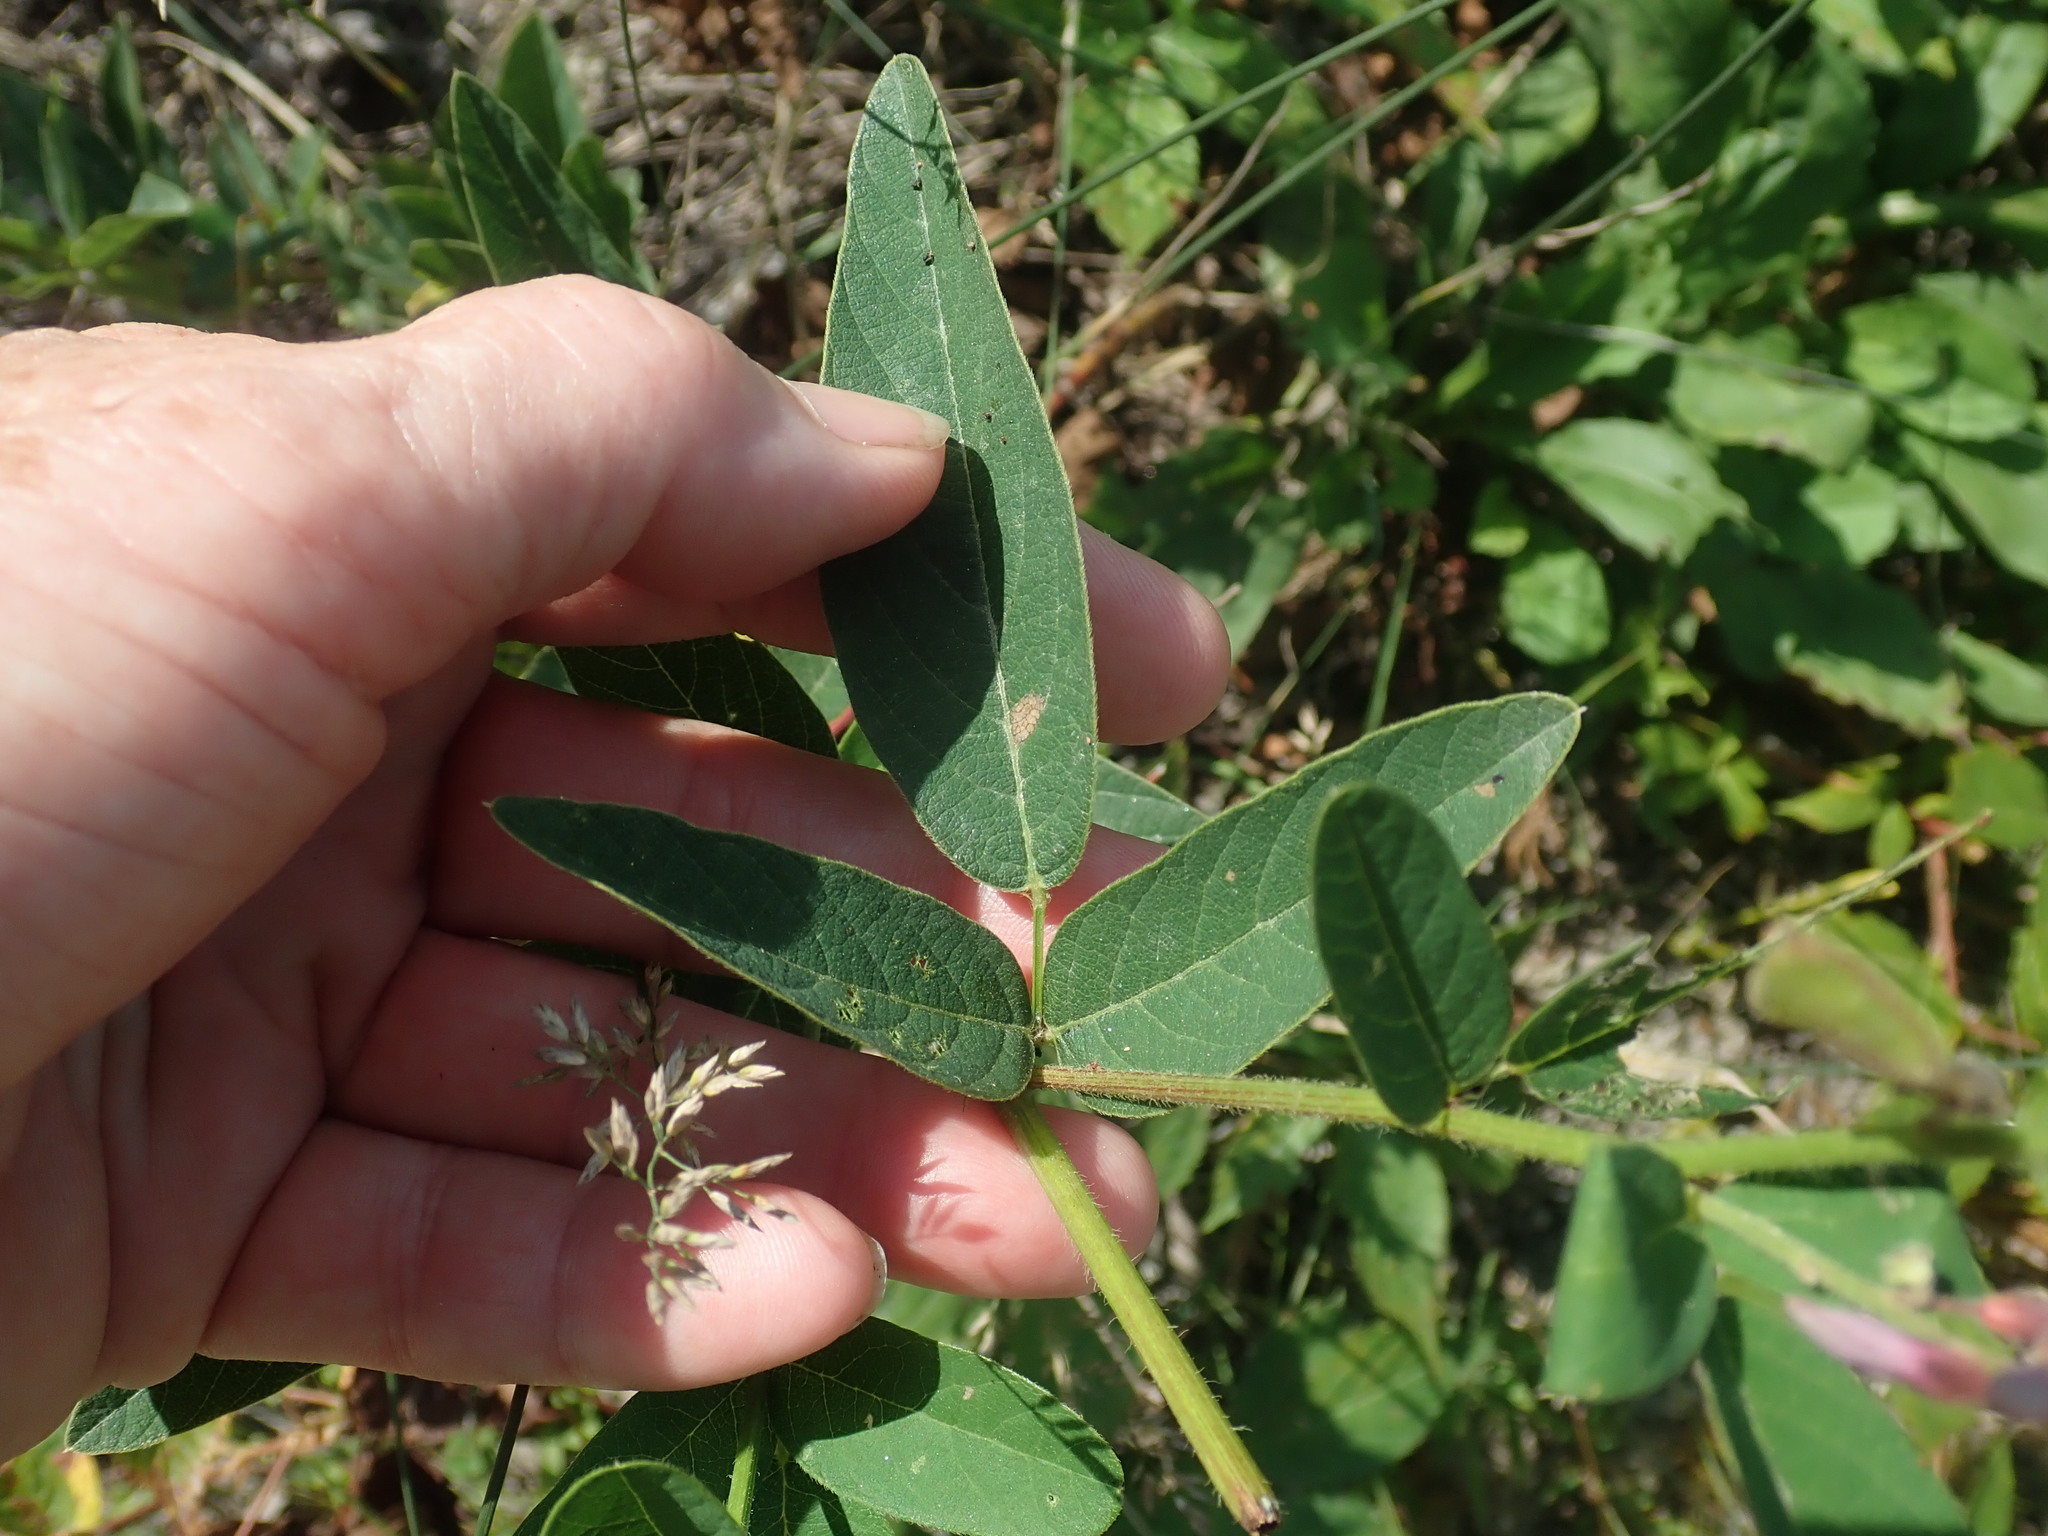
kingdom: Plantae
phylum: Tracheophyta
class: Magnoliopsida
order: Fabales
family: Fabaceae
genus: Desmodium
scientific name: Desmodium canadense
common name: Canada tick-trefoil
